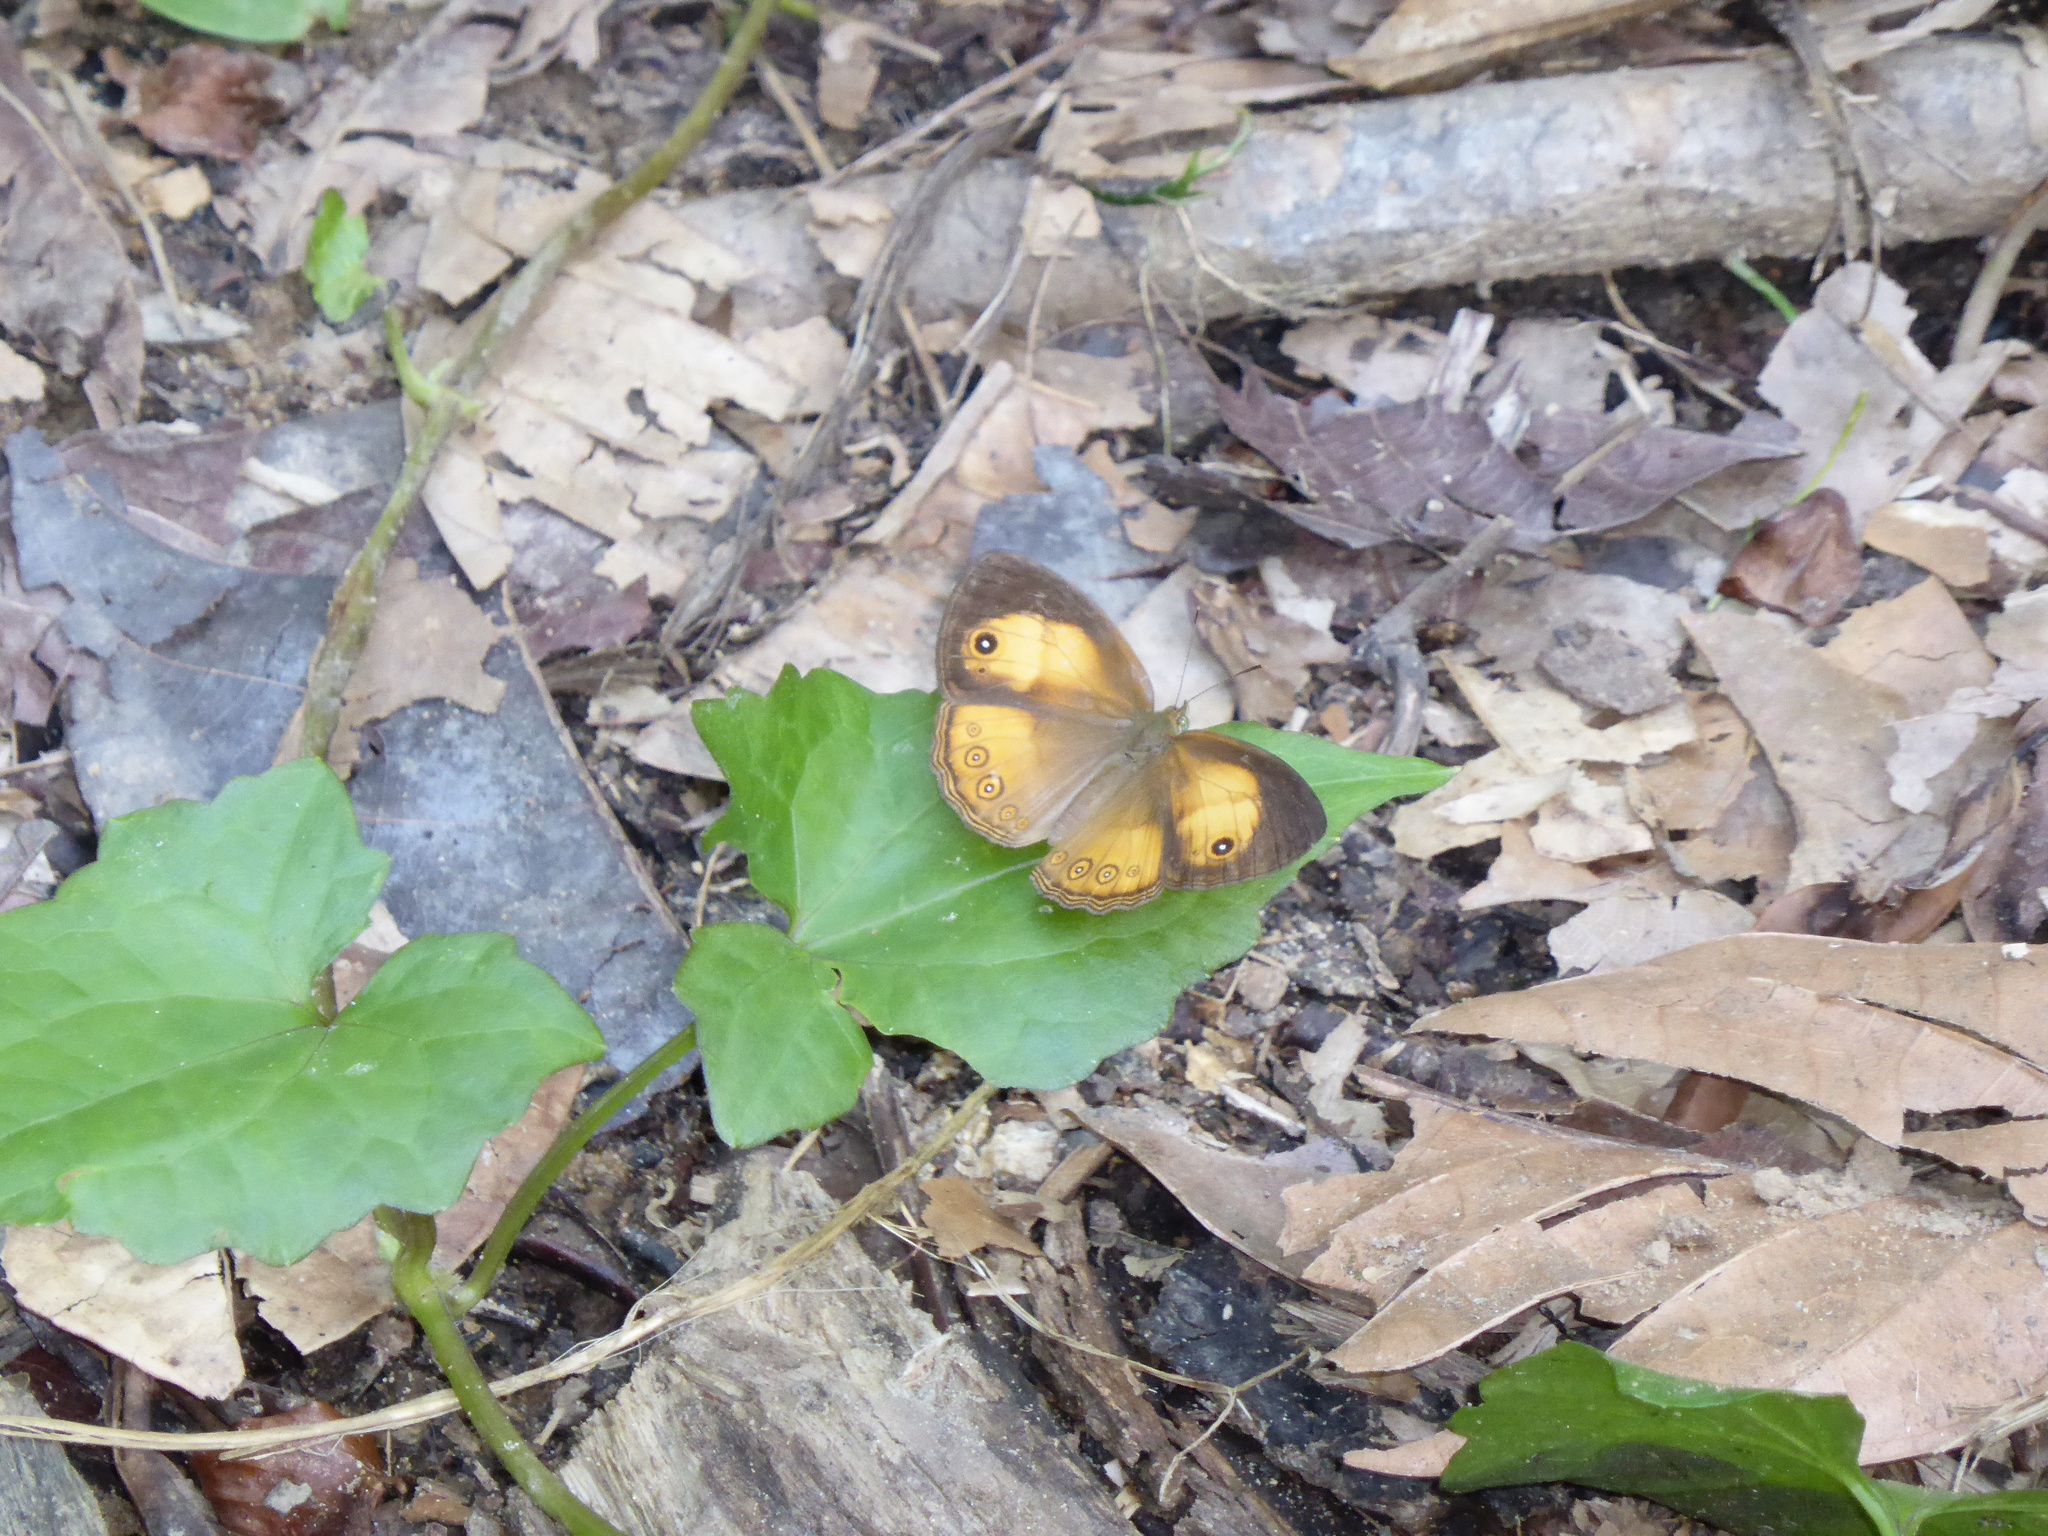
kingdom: Animalia
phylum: Arthropoda
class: Insecta
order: Lepidoptera
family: Nymphalidae
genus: Mycalesis
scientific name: Mycalesis anapita
